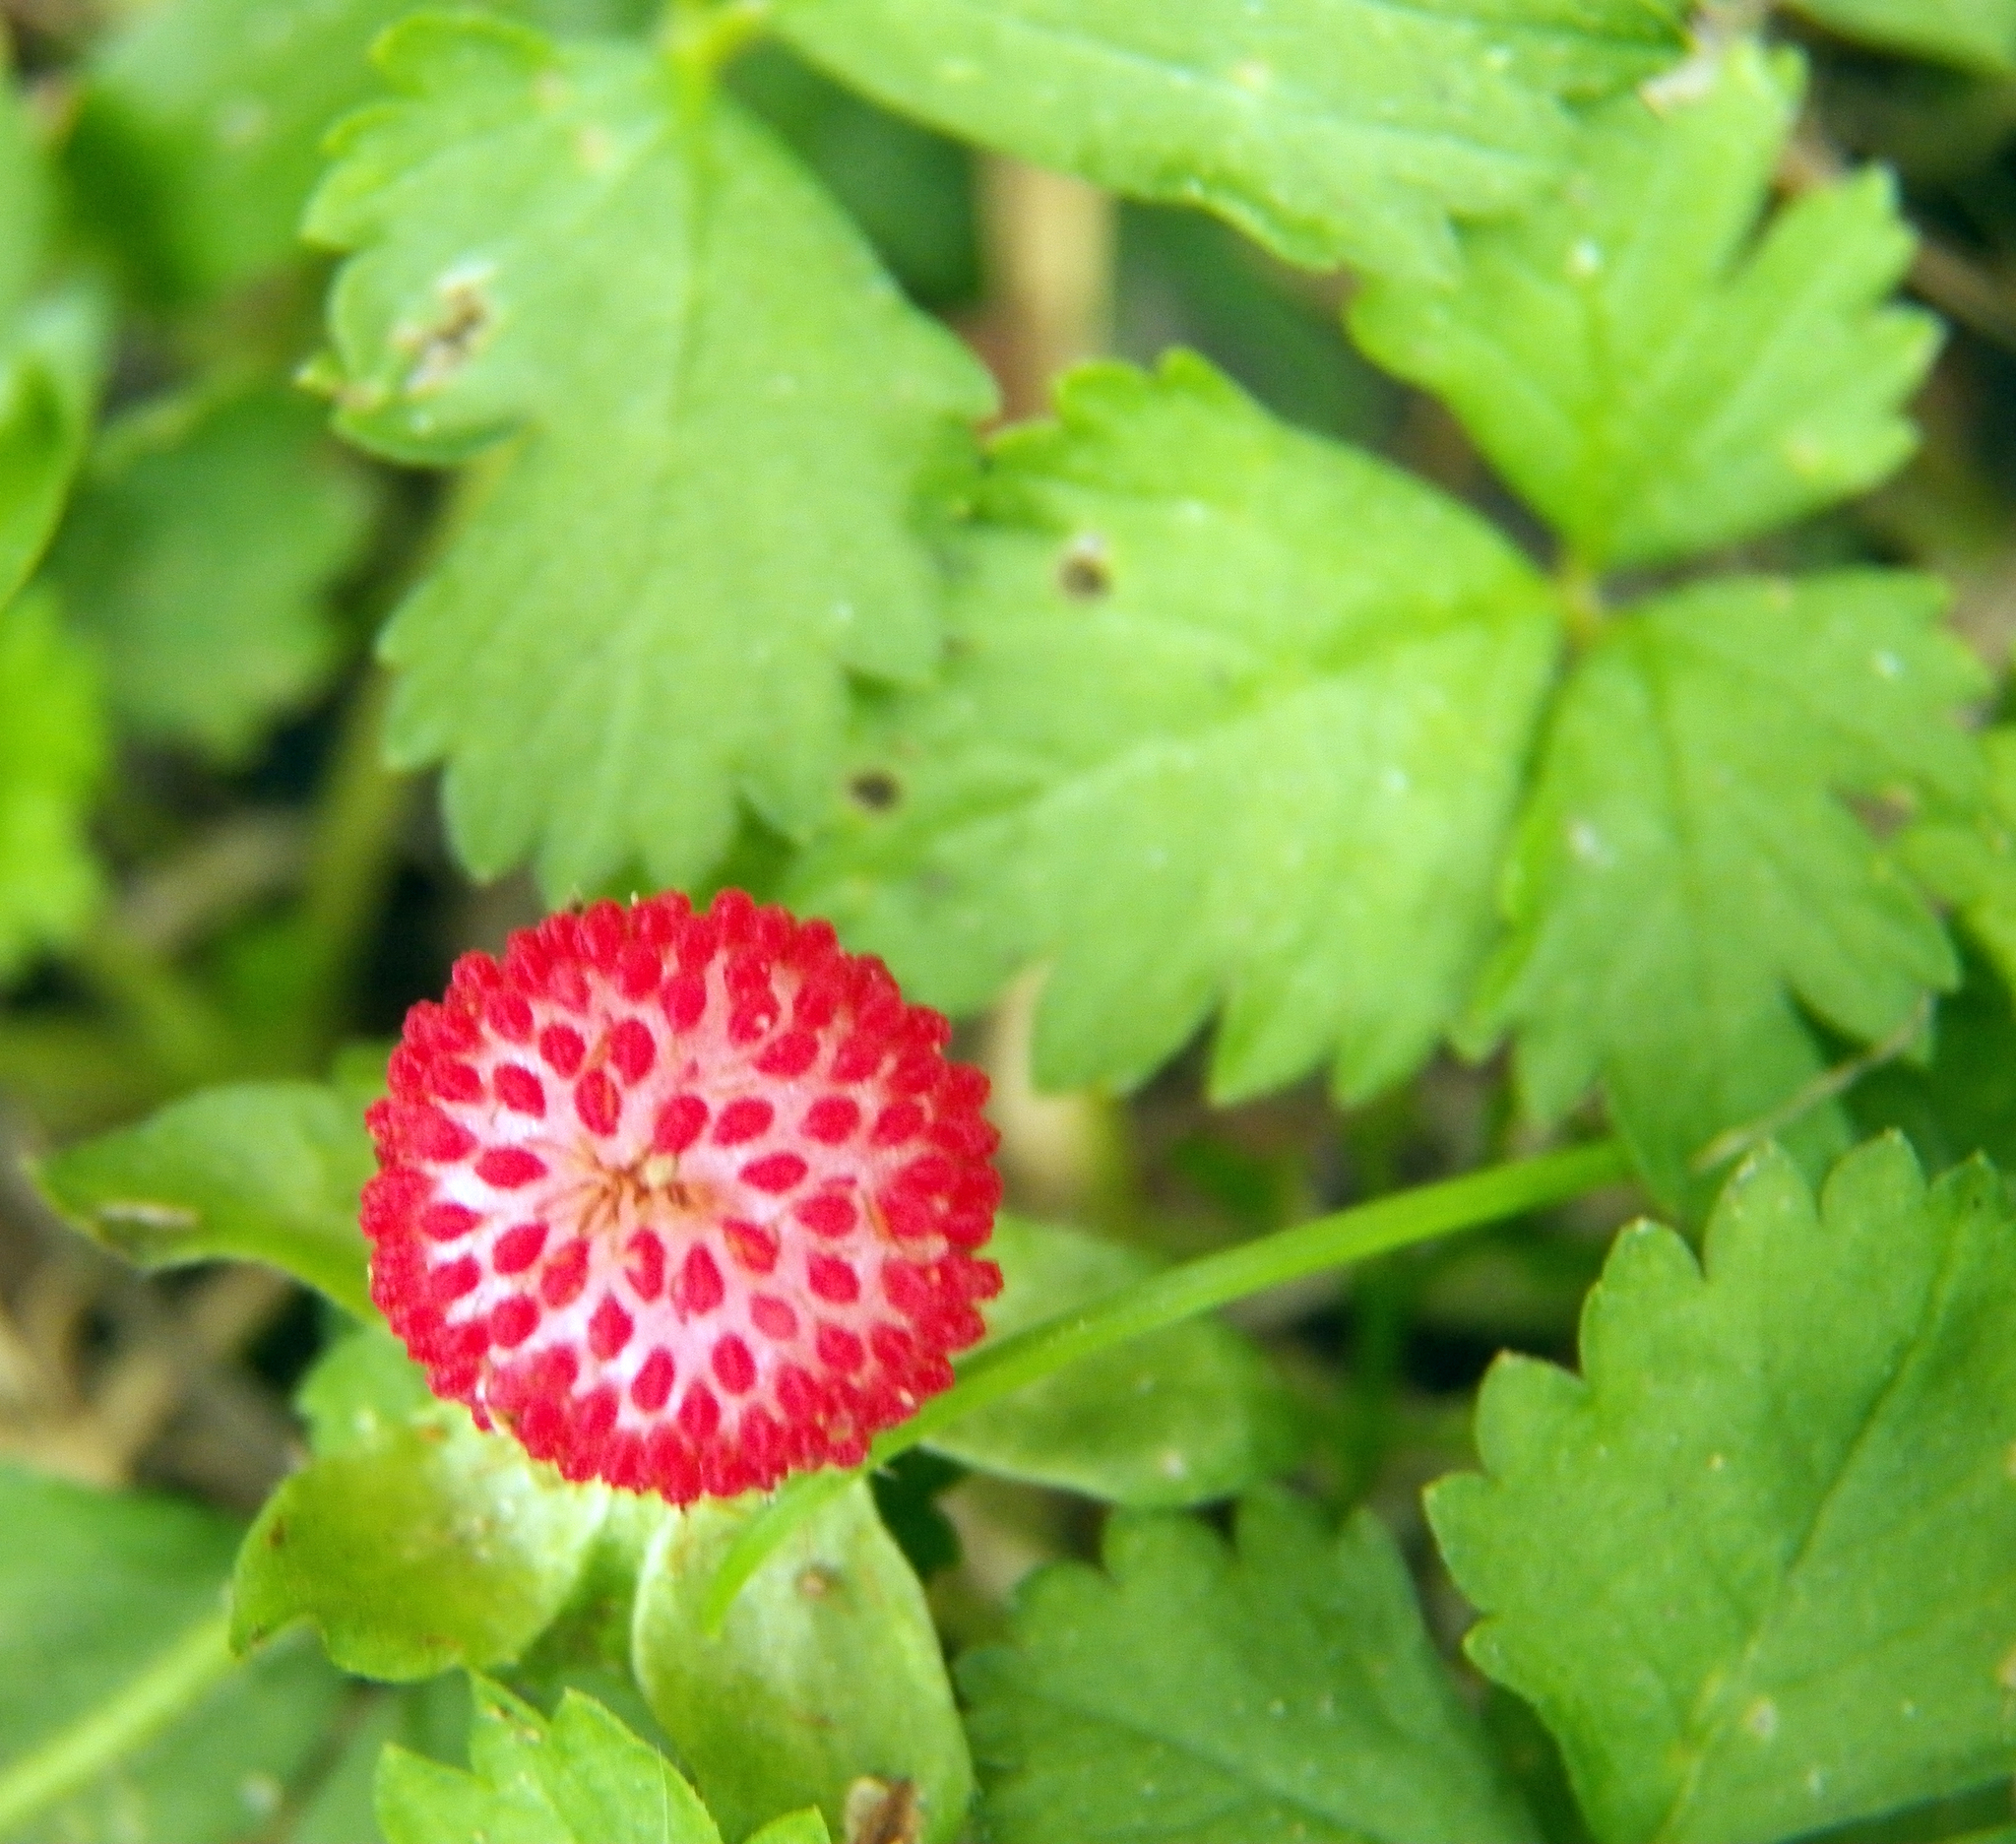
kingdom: Plantae
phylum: Tracheophyta
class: Magnoliopsida
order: Rosales
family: Rosaceae
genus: Potentilla
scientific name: Potentilla indica
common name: Yellow-flowered strawberry
